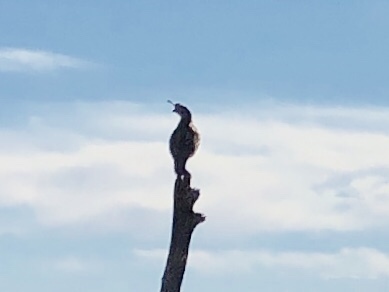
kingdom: Animalia
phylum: Chordata
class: Aves
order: Galliformes
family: Odontophoridae
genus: Callipepla
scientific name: Callipepla gambelii
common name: Gambel's quail
